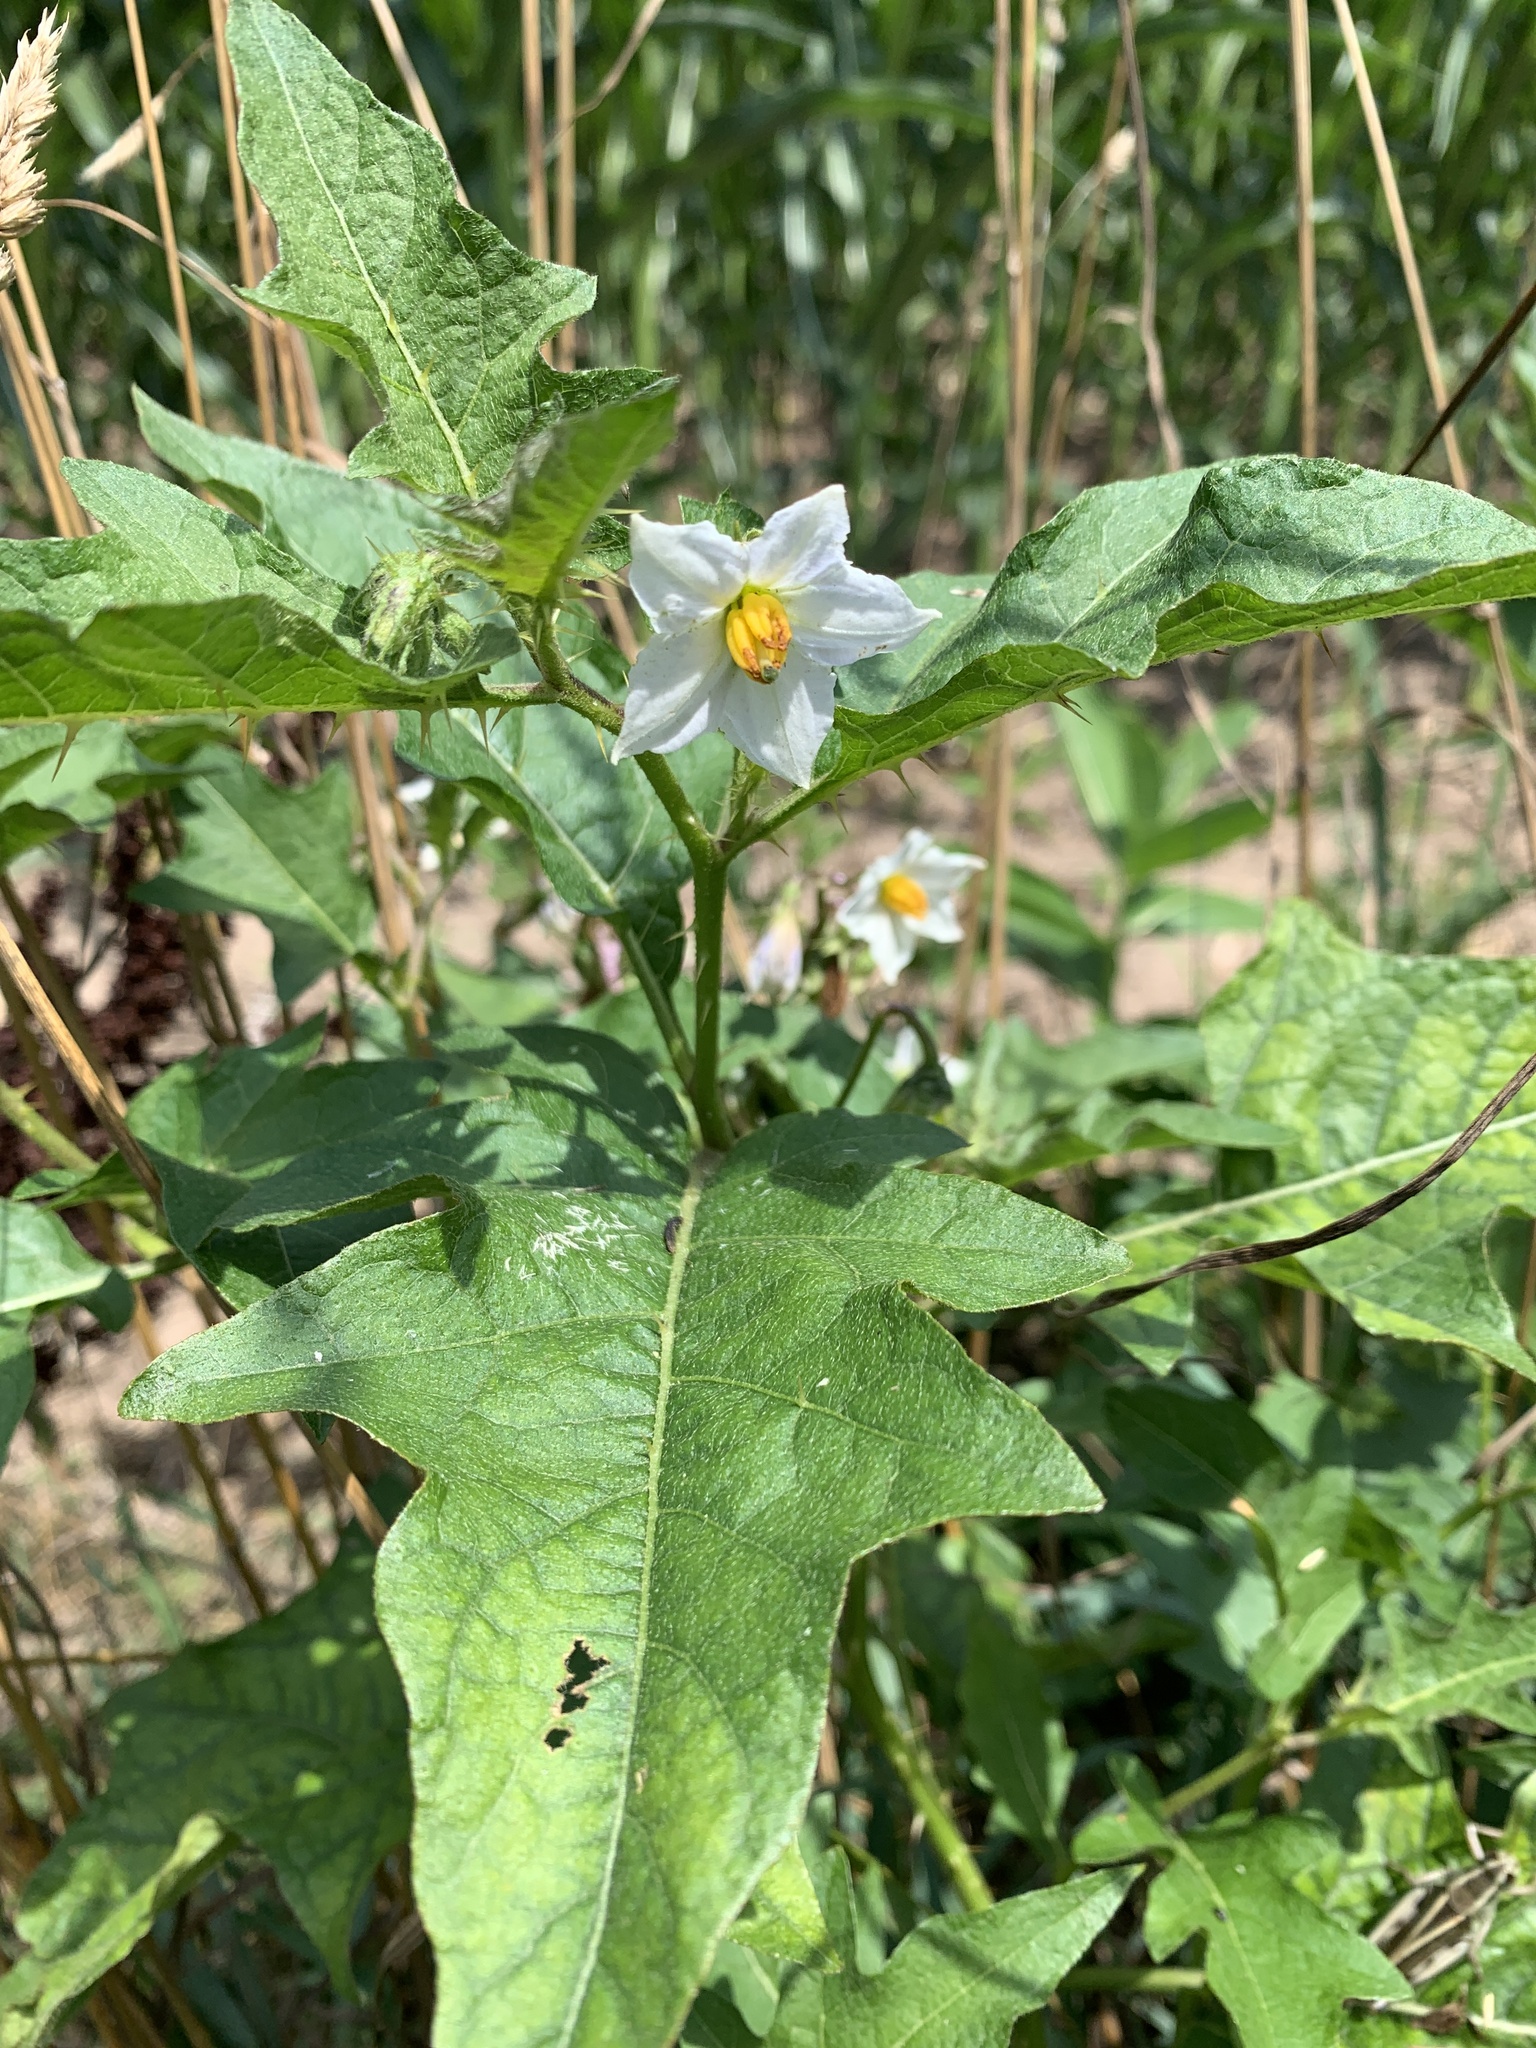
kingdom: Plantae
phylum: Tracheophyta
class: Magnoliopsida
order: Solanales
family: Solanaceae
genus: Solanum
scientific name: Solanum carolinense
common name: Horse-nettle
